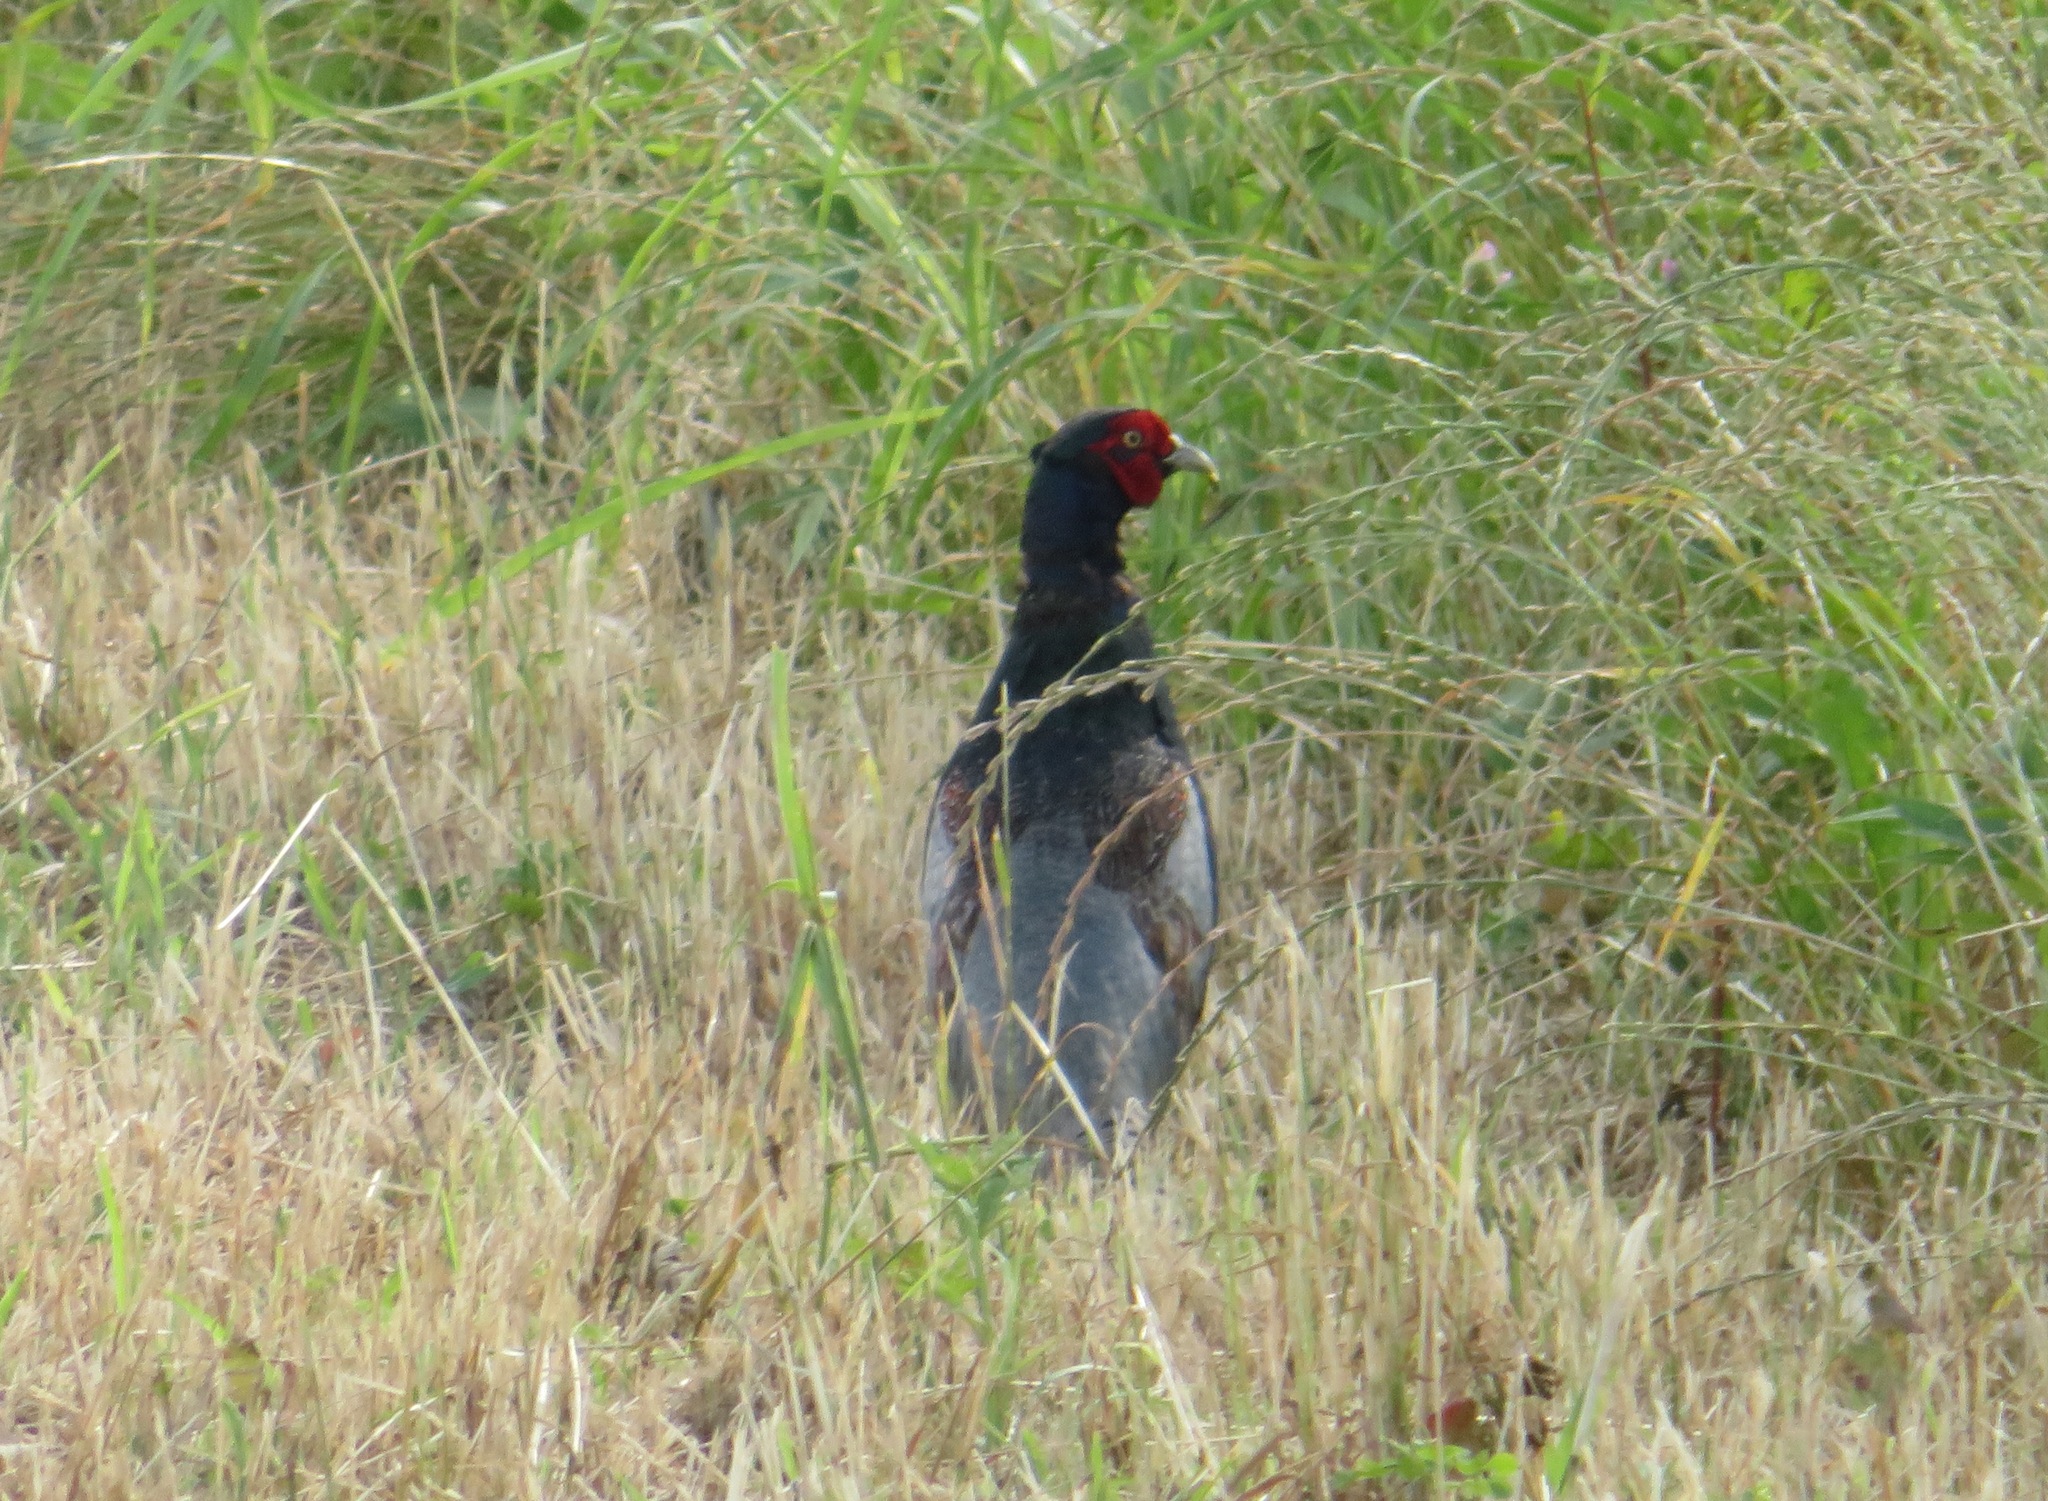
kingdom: Animalia
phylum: Chordata
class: Aves
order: Galliformes
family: Phasianidae
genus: Phasianus
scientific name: Phasianus versicolor
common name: Green pheasant
